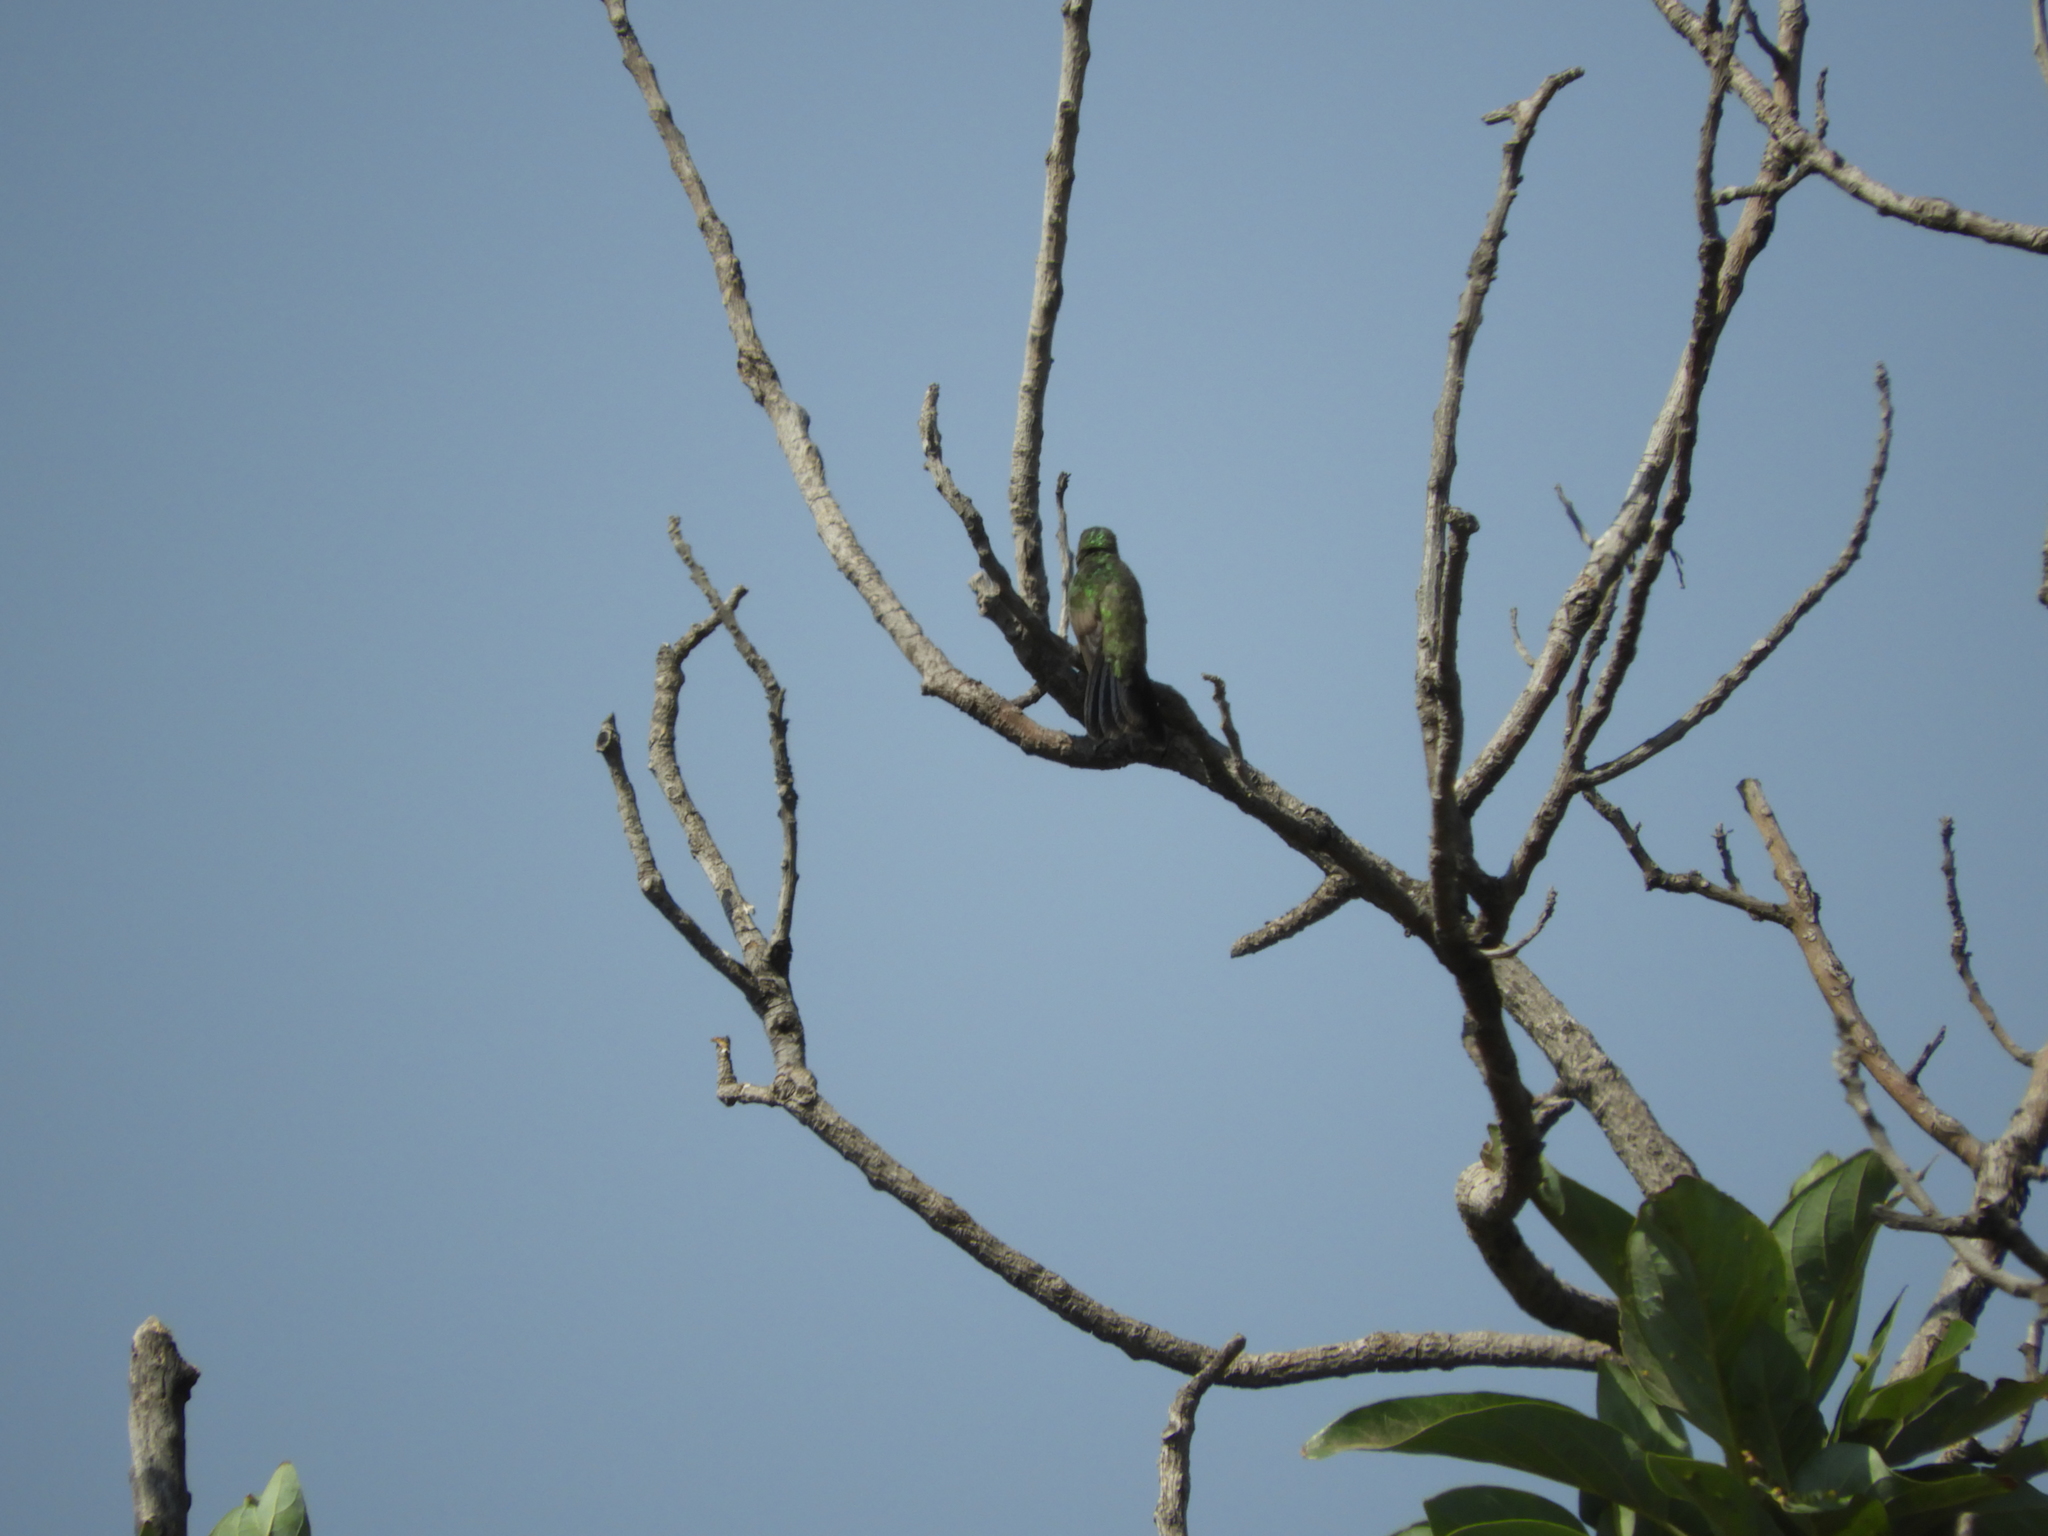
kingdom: Animalia
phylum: Chordata
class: Aves
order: Apodiformes
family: Trochilidae
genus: Cynanthus
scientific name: Cynanthus latirostris
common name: Broad-billed hummingbird
